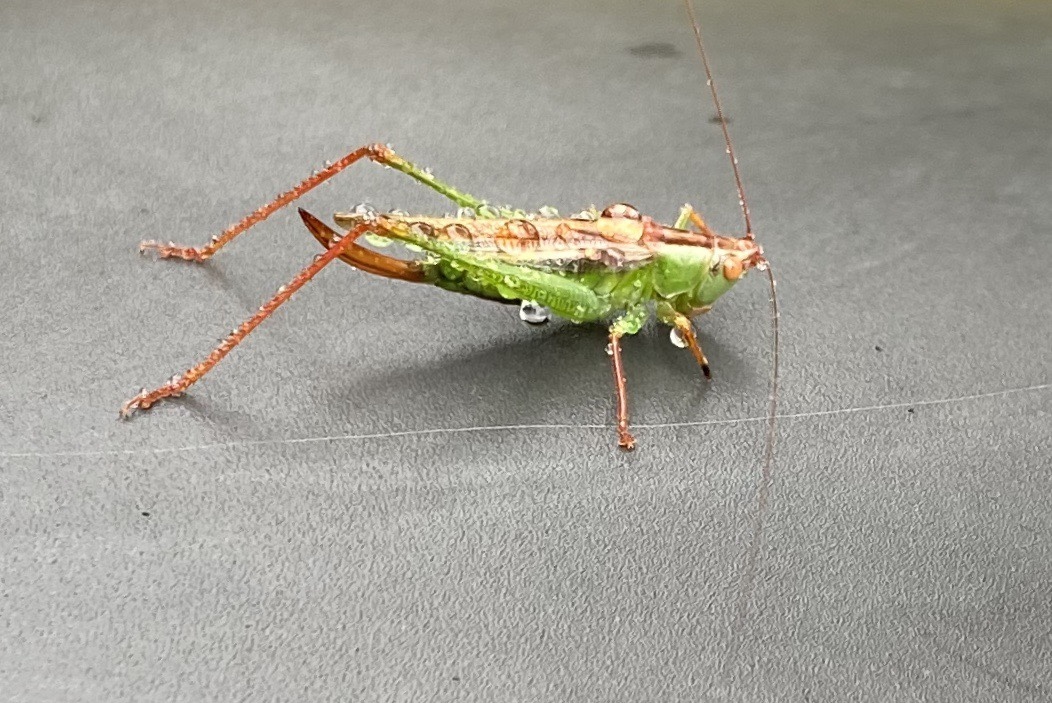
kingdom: Animalia
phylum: Arthropoda
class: Insecta
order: Orthoptera
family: Tettigoniidae
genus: Orchelimum
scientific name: Orchelimum minor
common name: Lesser pine meadow katydid
